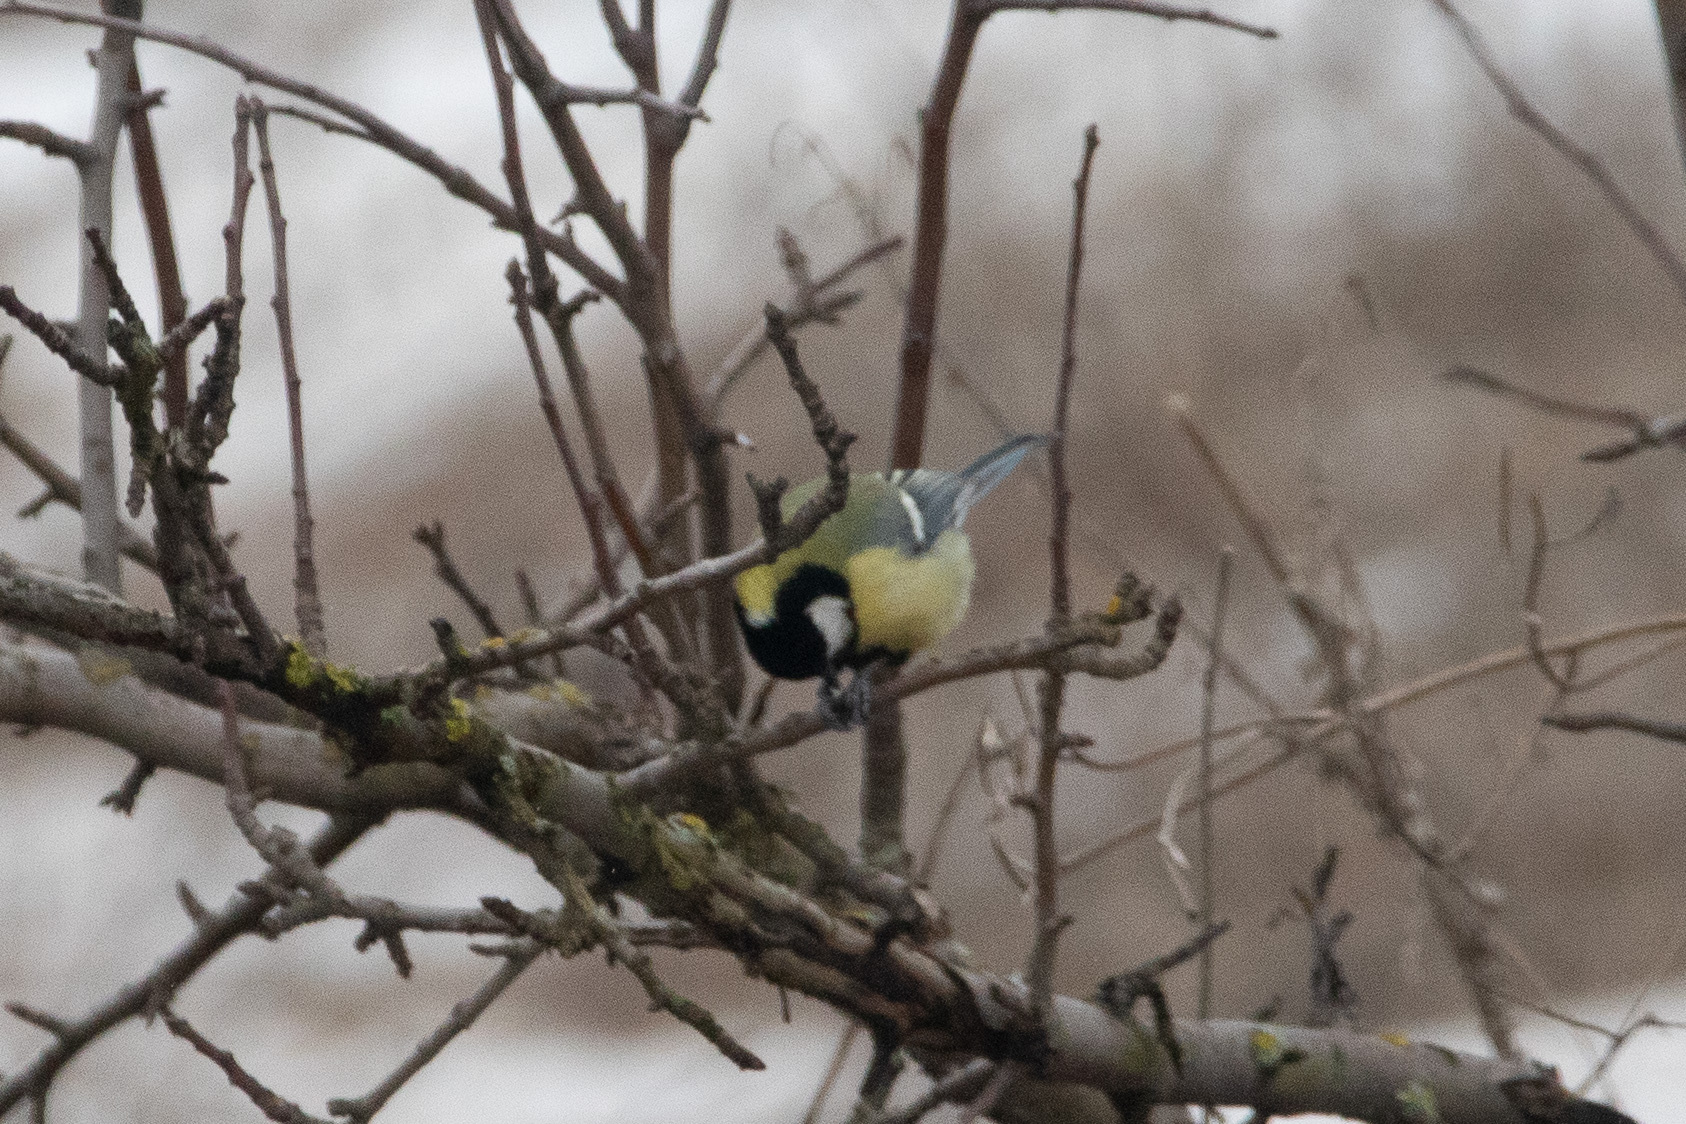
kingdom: Animalia
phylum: Chordata
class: Aves
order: Passeriformes
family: Paridae
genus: Parus
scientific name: Parus major
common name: Great tit
